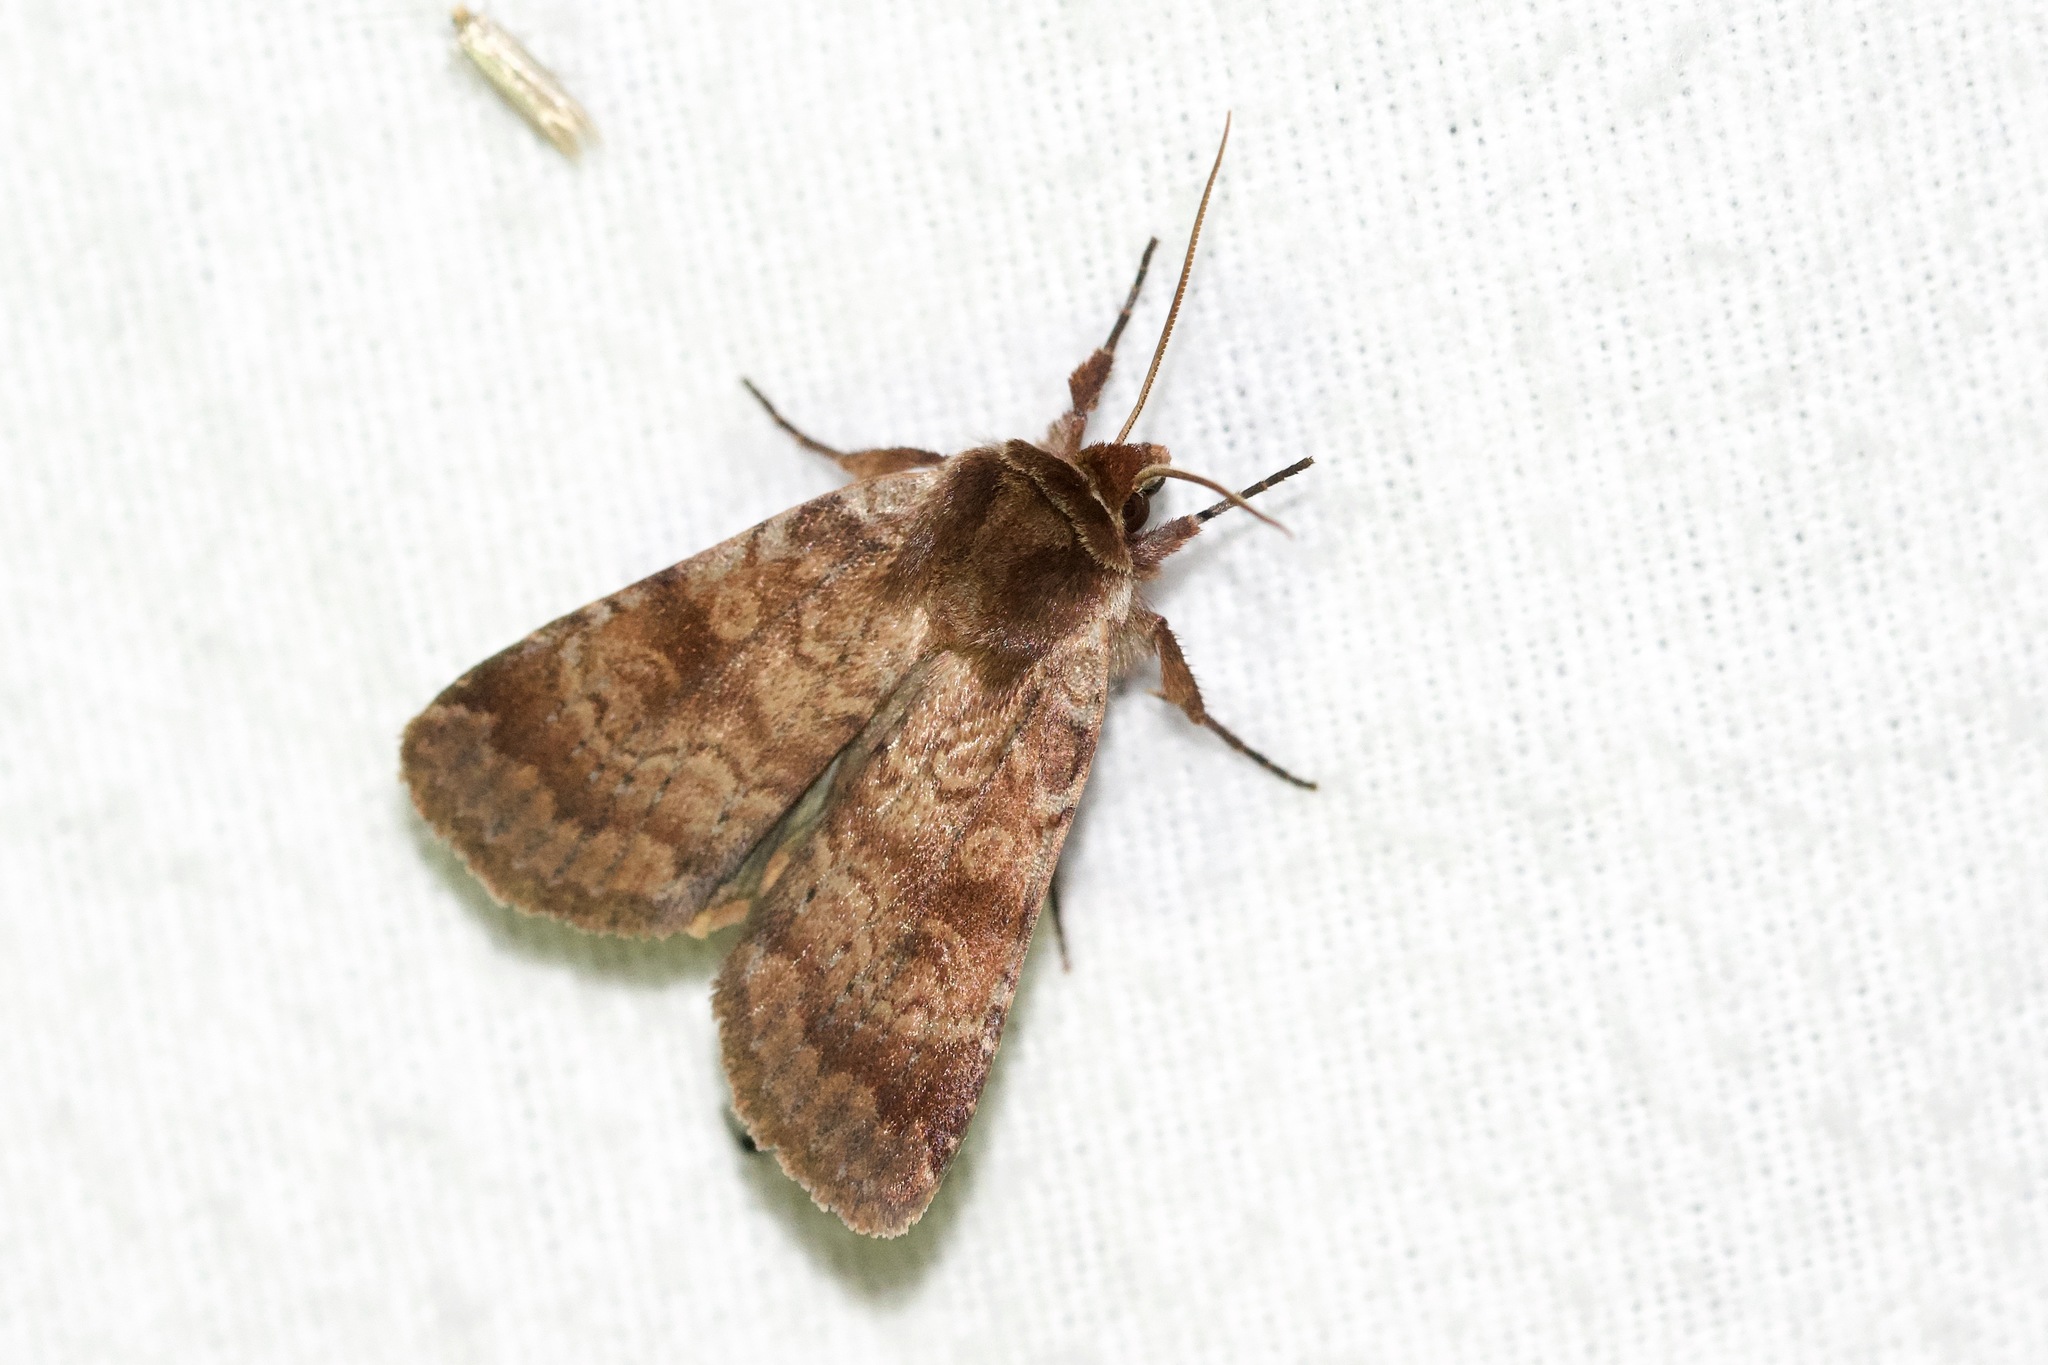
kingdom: Animalia
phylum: Arthropoda
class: Insecta
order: Lepidoptera
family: Noctuidae
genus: Lycophotia
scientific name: Lycophotia phyllophora
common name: Lycophotia moth
